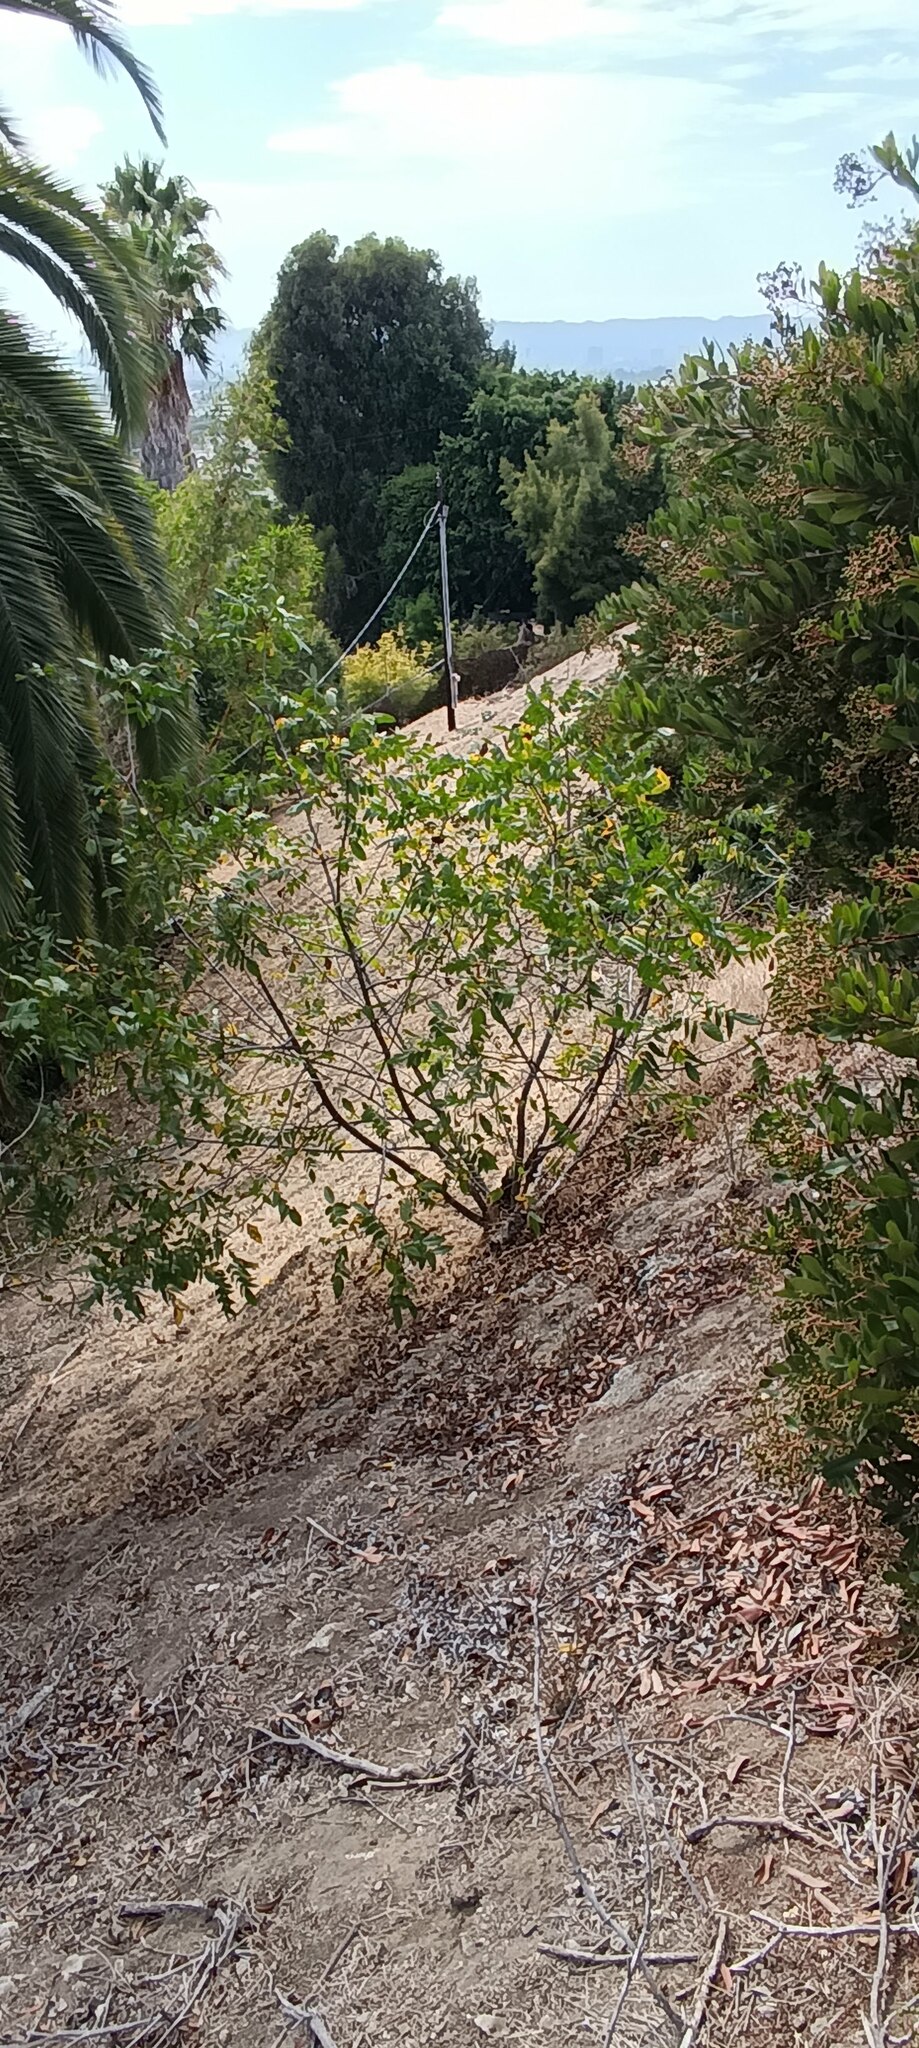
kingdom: Plantae
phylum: Tracheophyta
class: Magnoliopsida
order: Fagales
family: Juglandaceae
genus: Juglans
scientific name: Juglans californica
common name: Southern california black walnut
